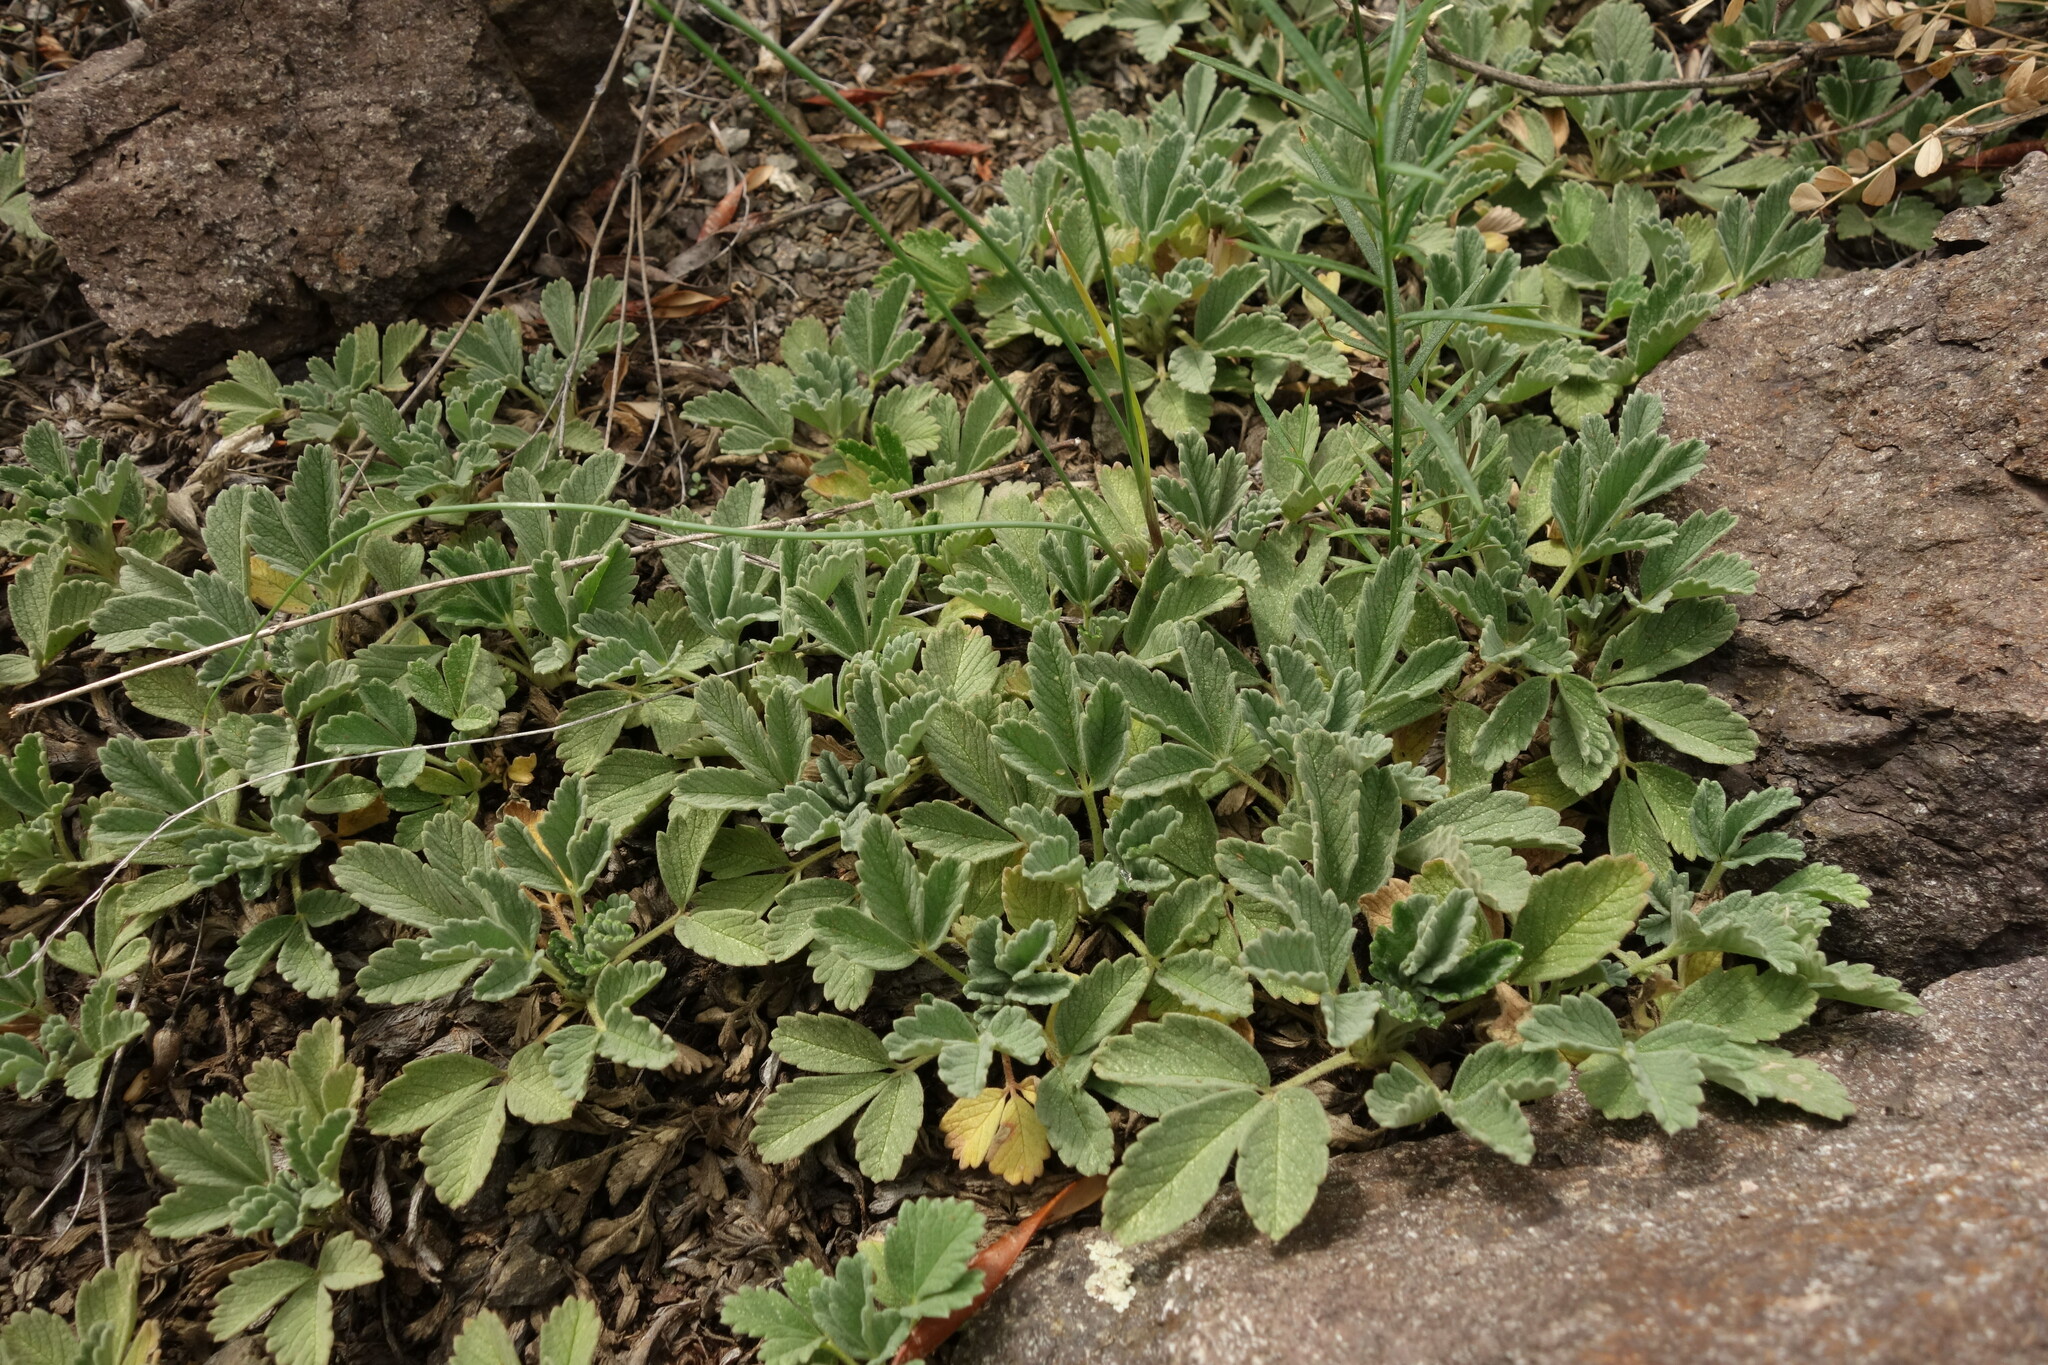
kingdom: Plantae
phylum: Tracheophyta
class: Magnoliopsida
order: Rosales
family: Rosaceae
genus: Potentilla
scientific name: Potentilla acaulis
